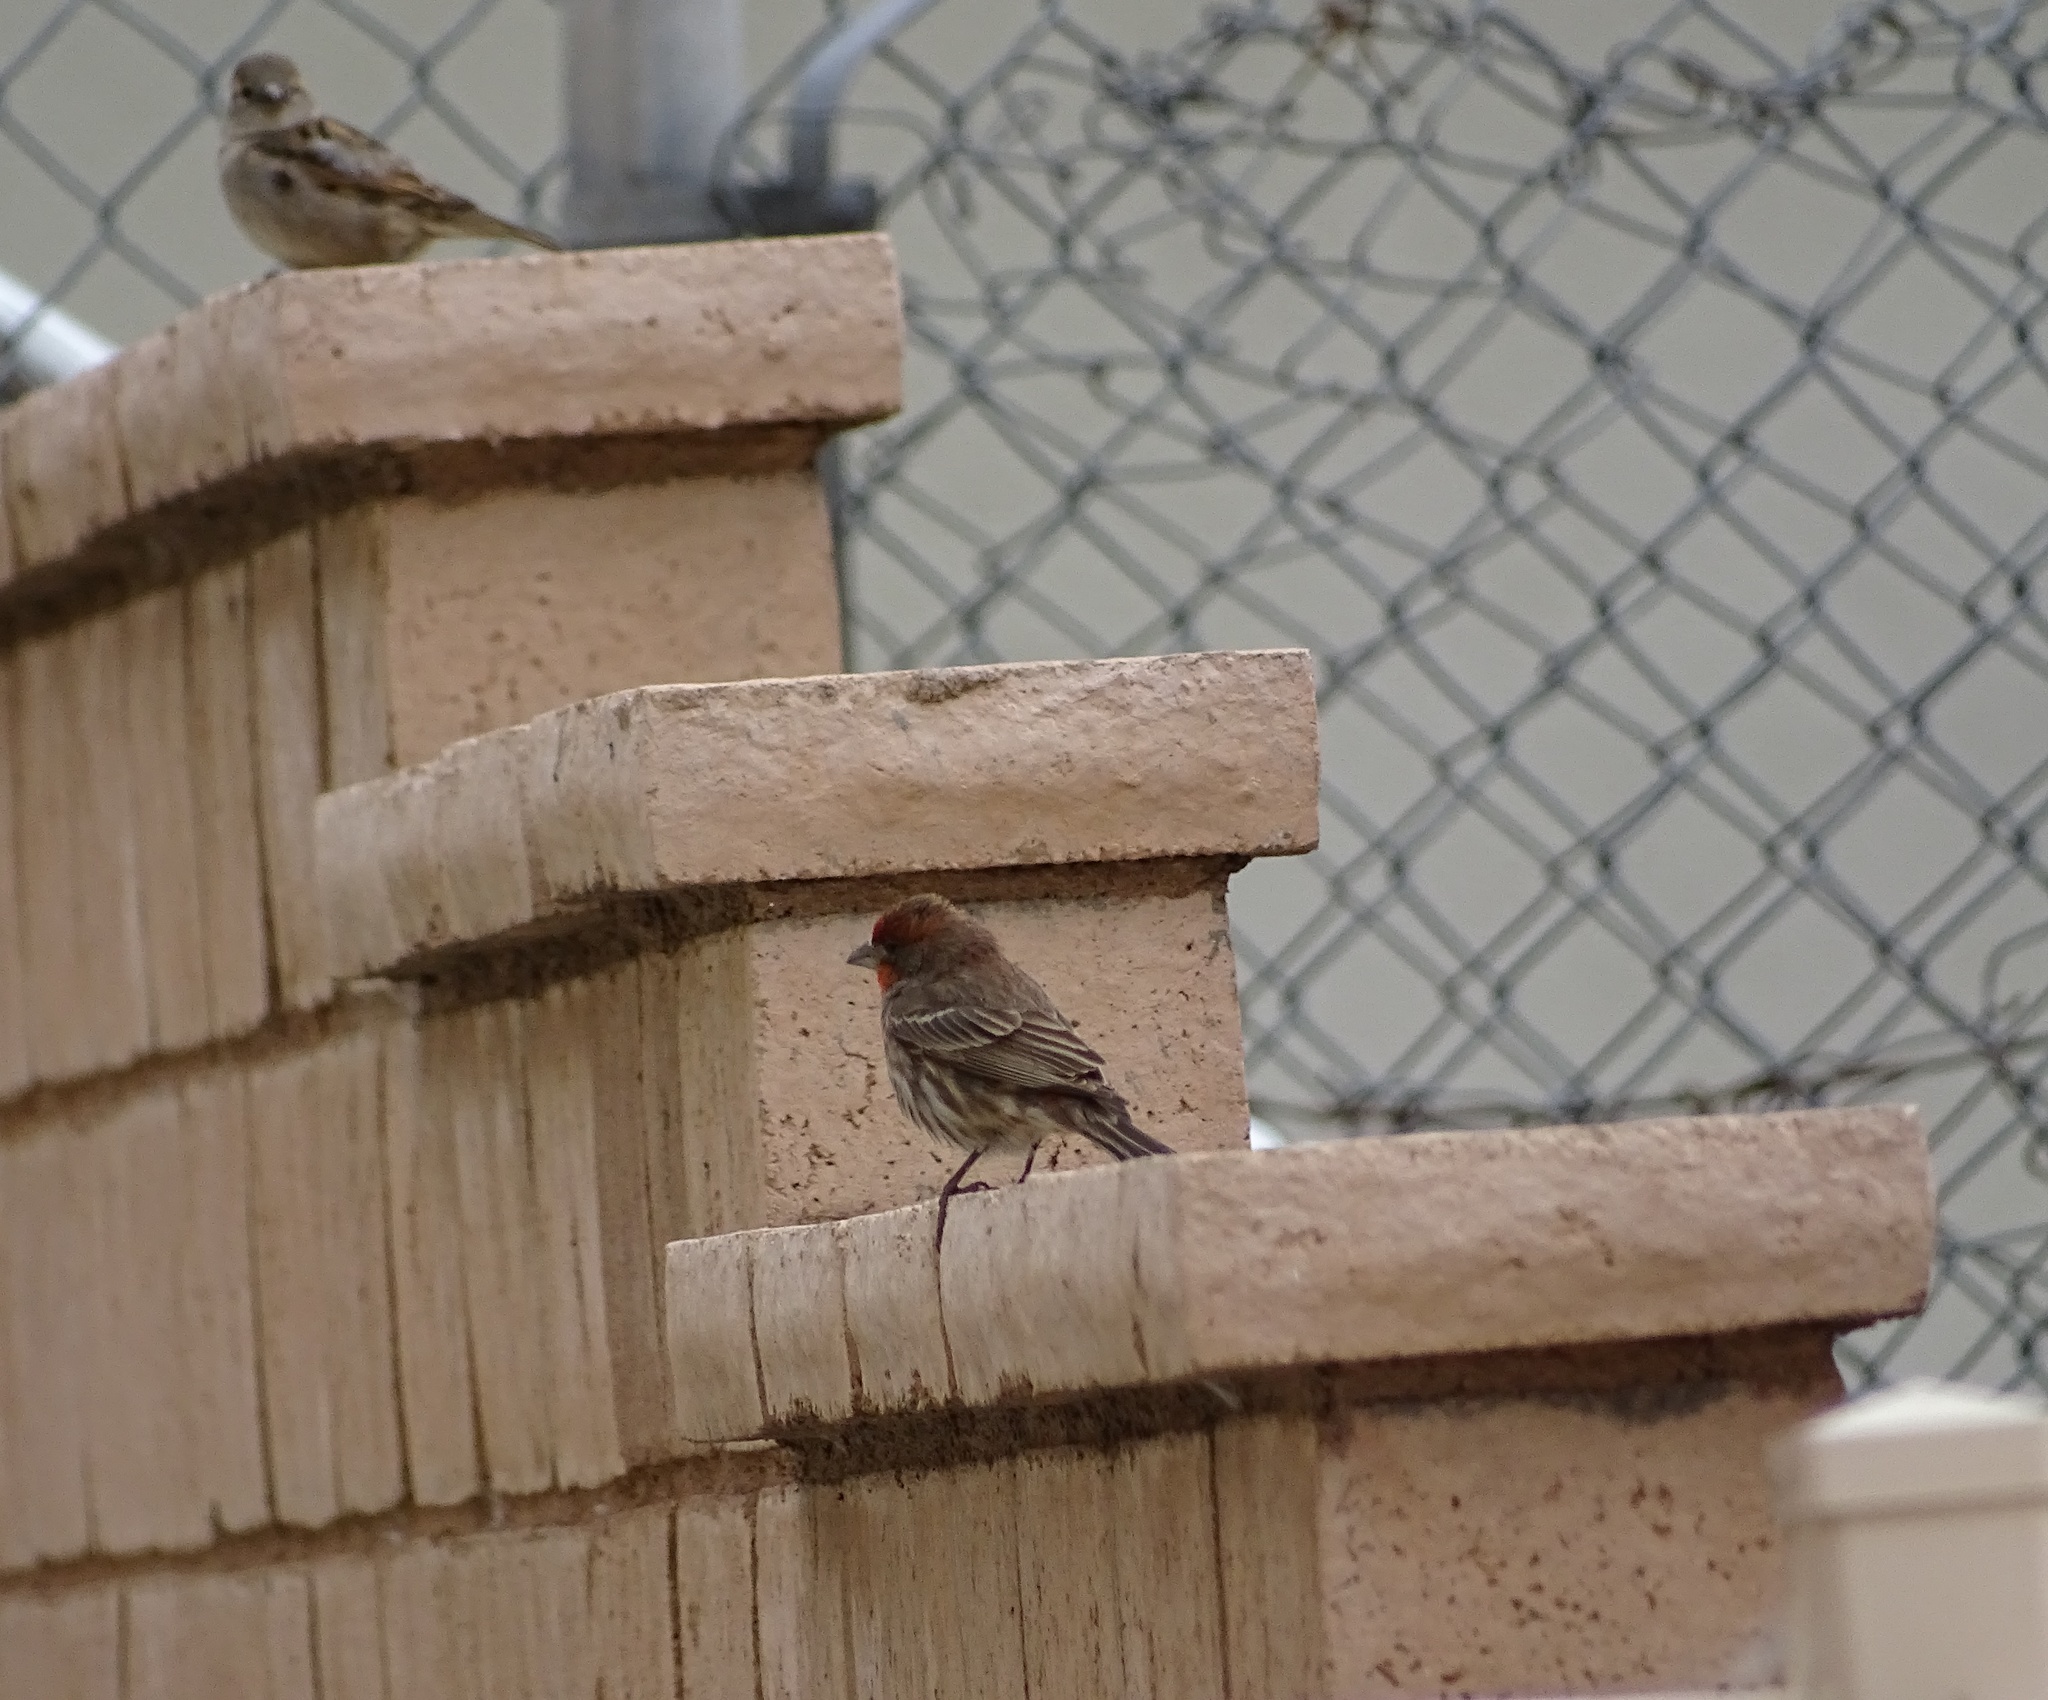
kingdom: Animalia
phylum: Chordata
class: Aves
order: Passeriformes
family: Fringillidae
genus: Haemorhous
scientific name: Haemorhous mexicanus
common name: House finch
